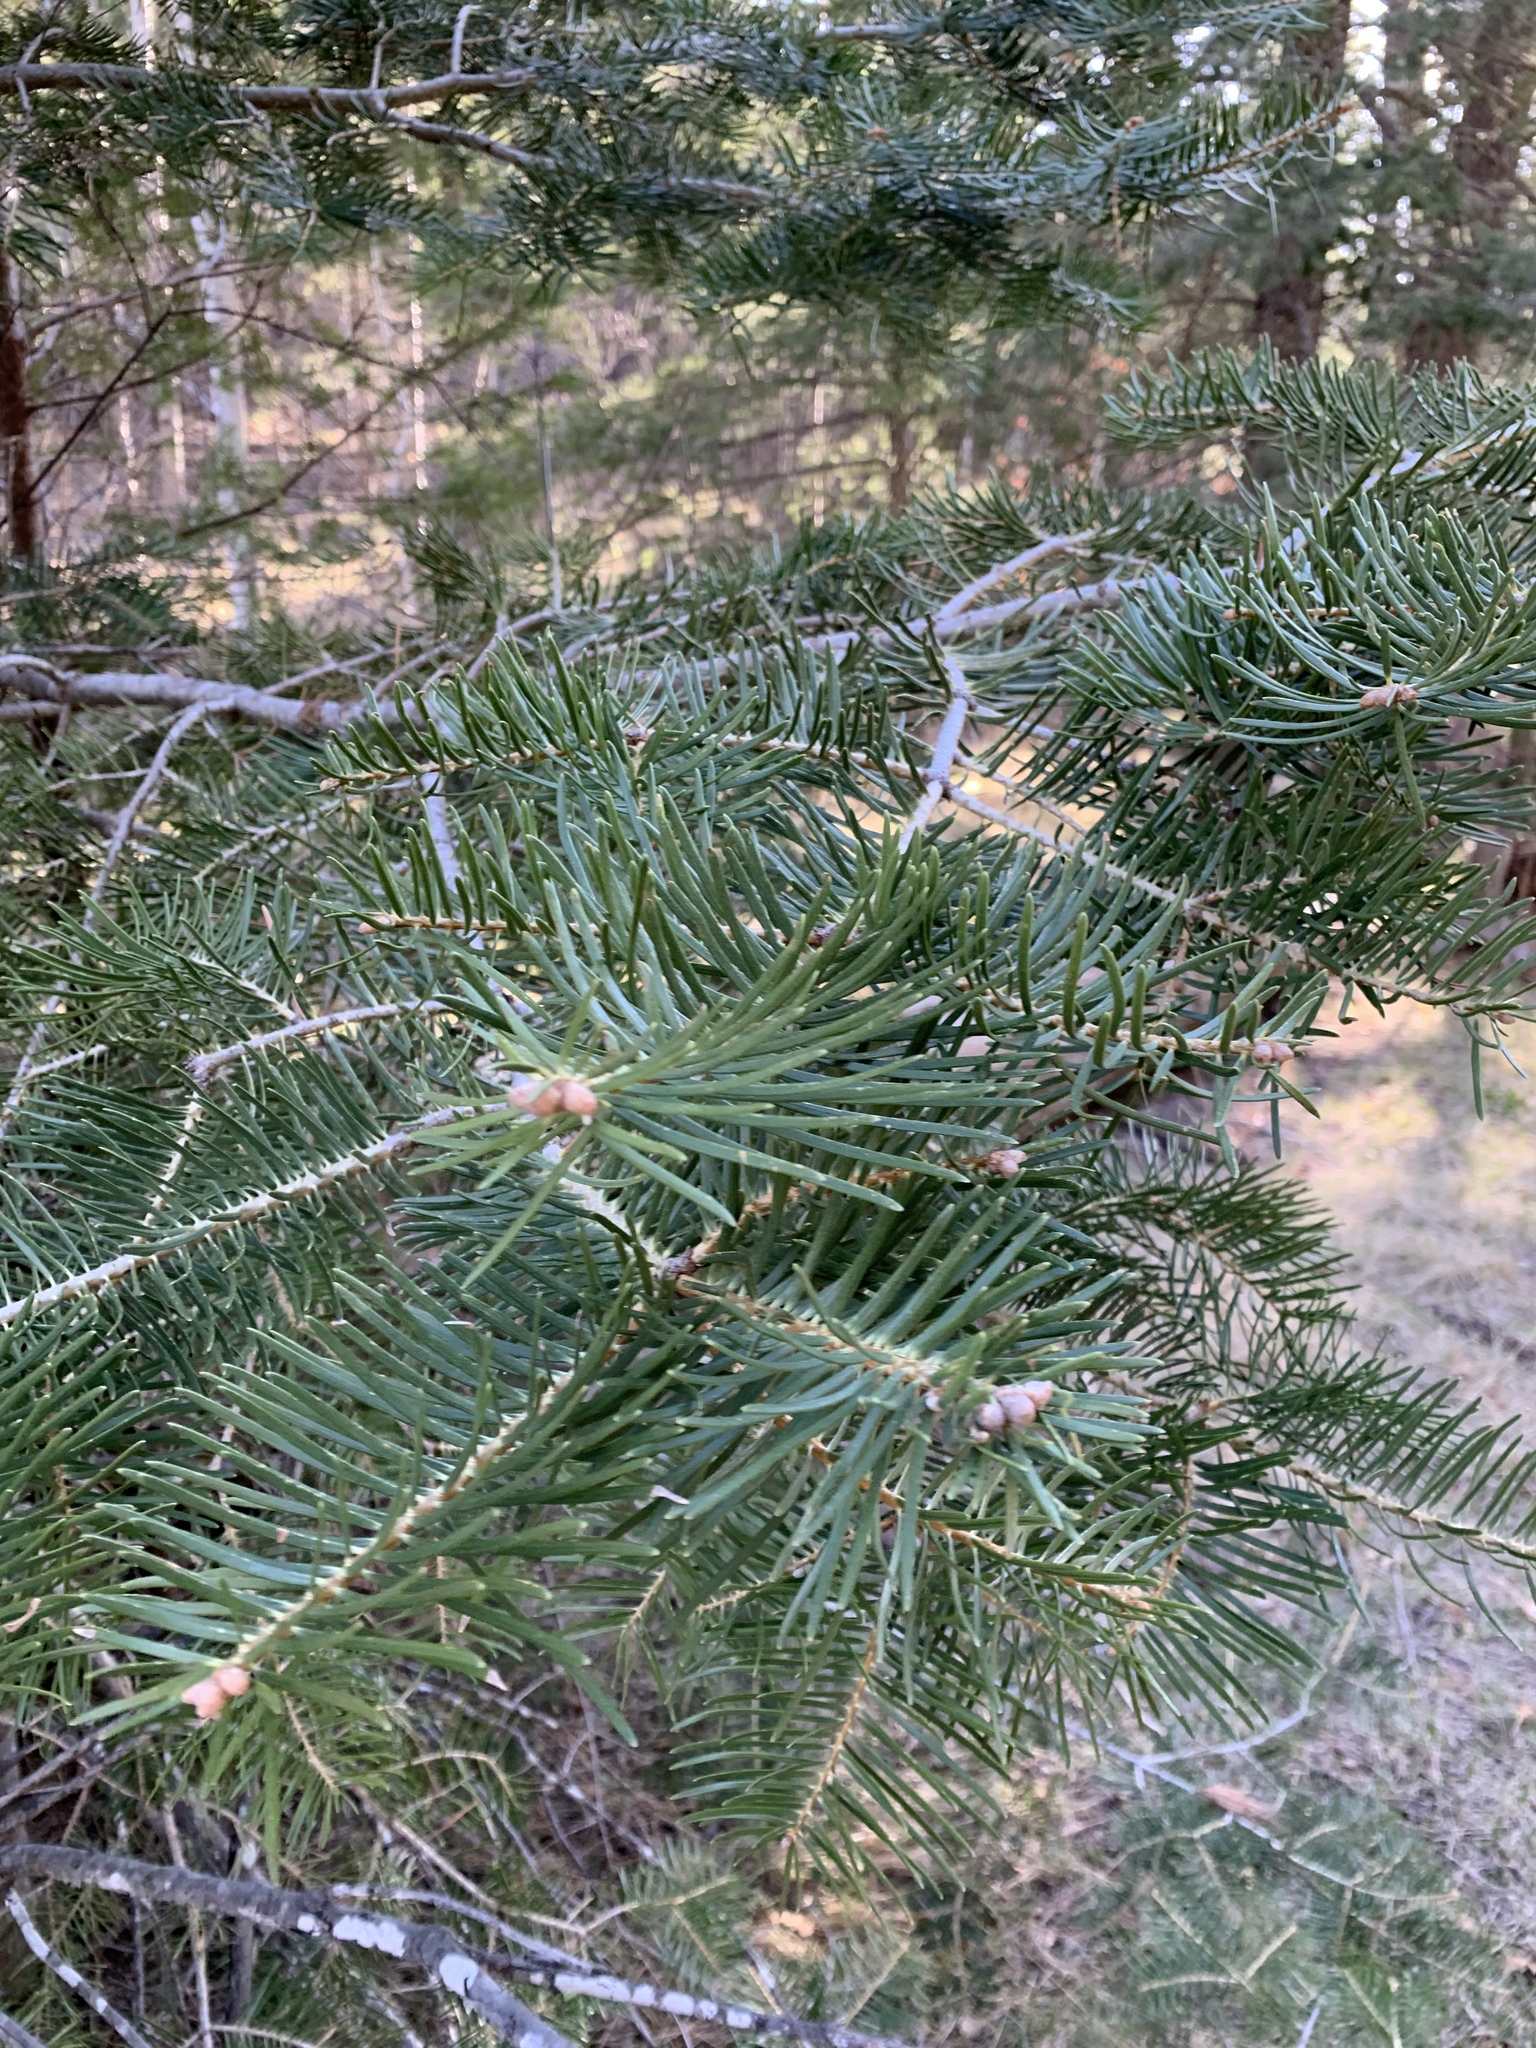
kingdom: Plantae
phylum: Tracheophyta
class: Pinopsida
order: Pinales
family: Pinaceae
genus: Abies
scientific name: Abies concolor
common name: Colorado fir
